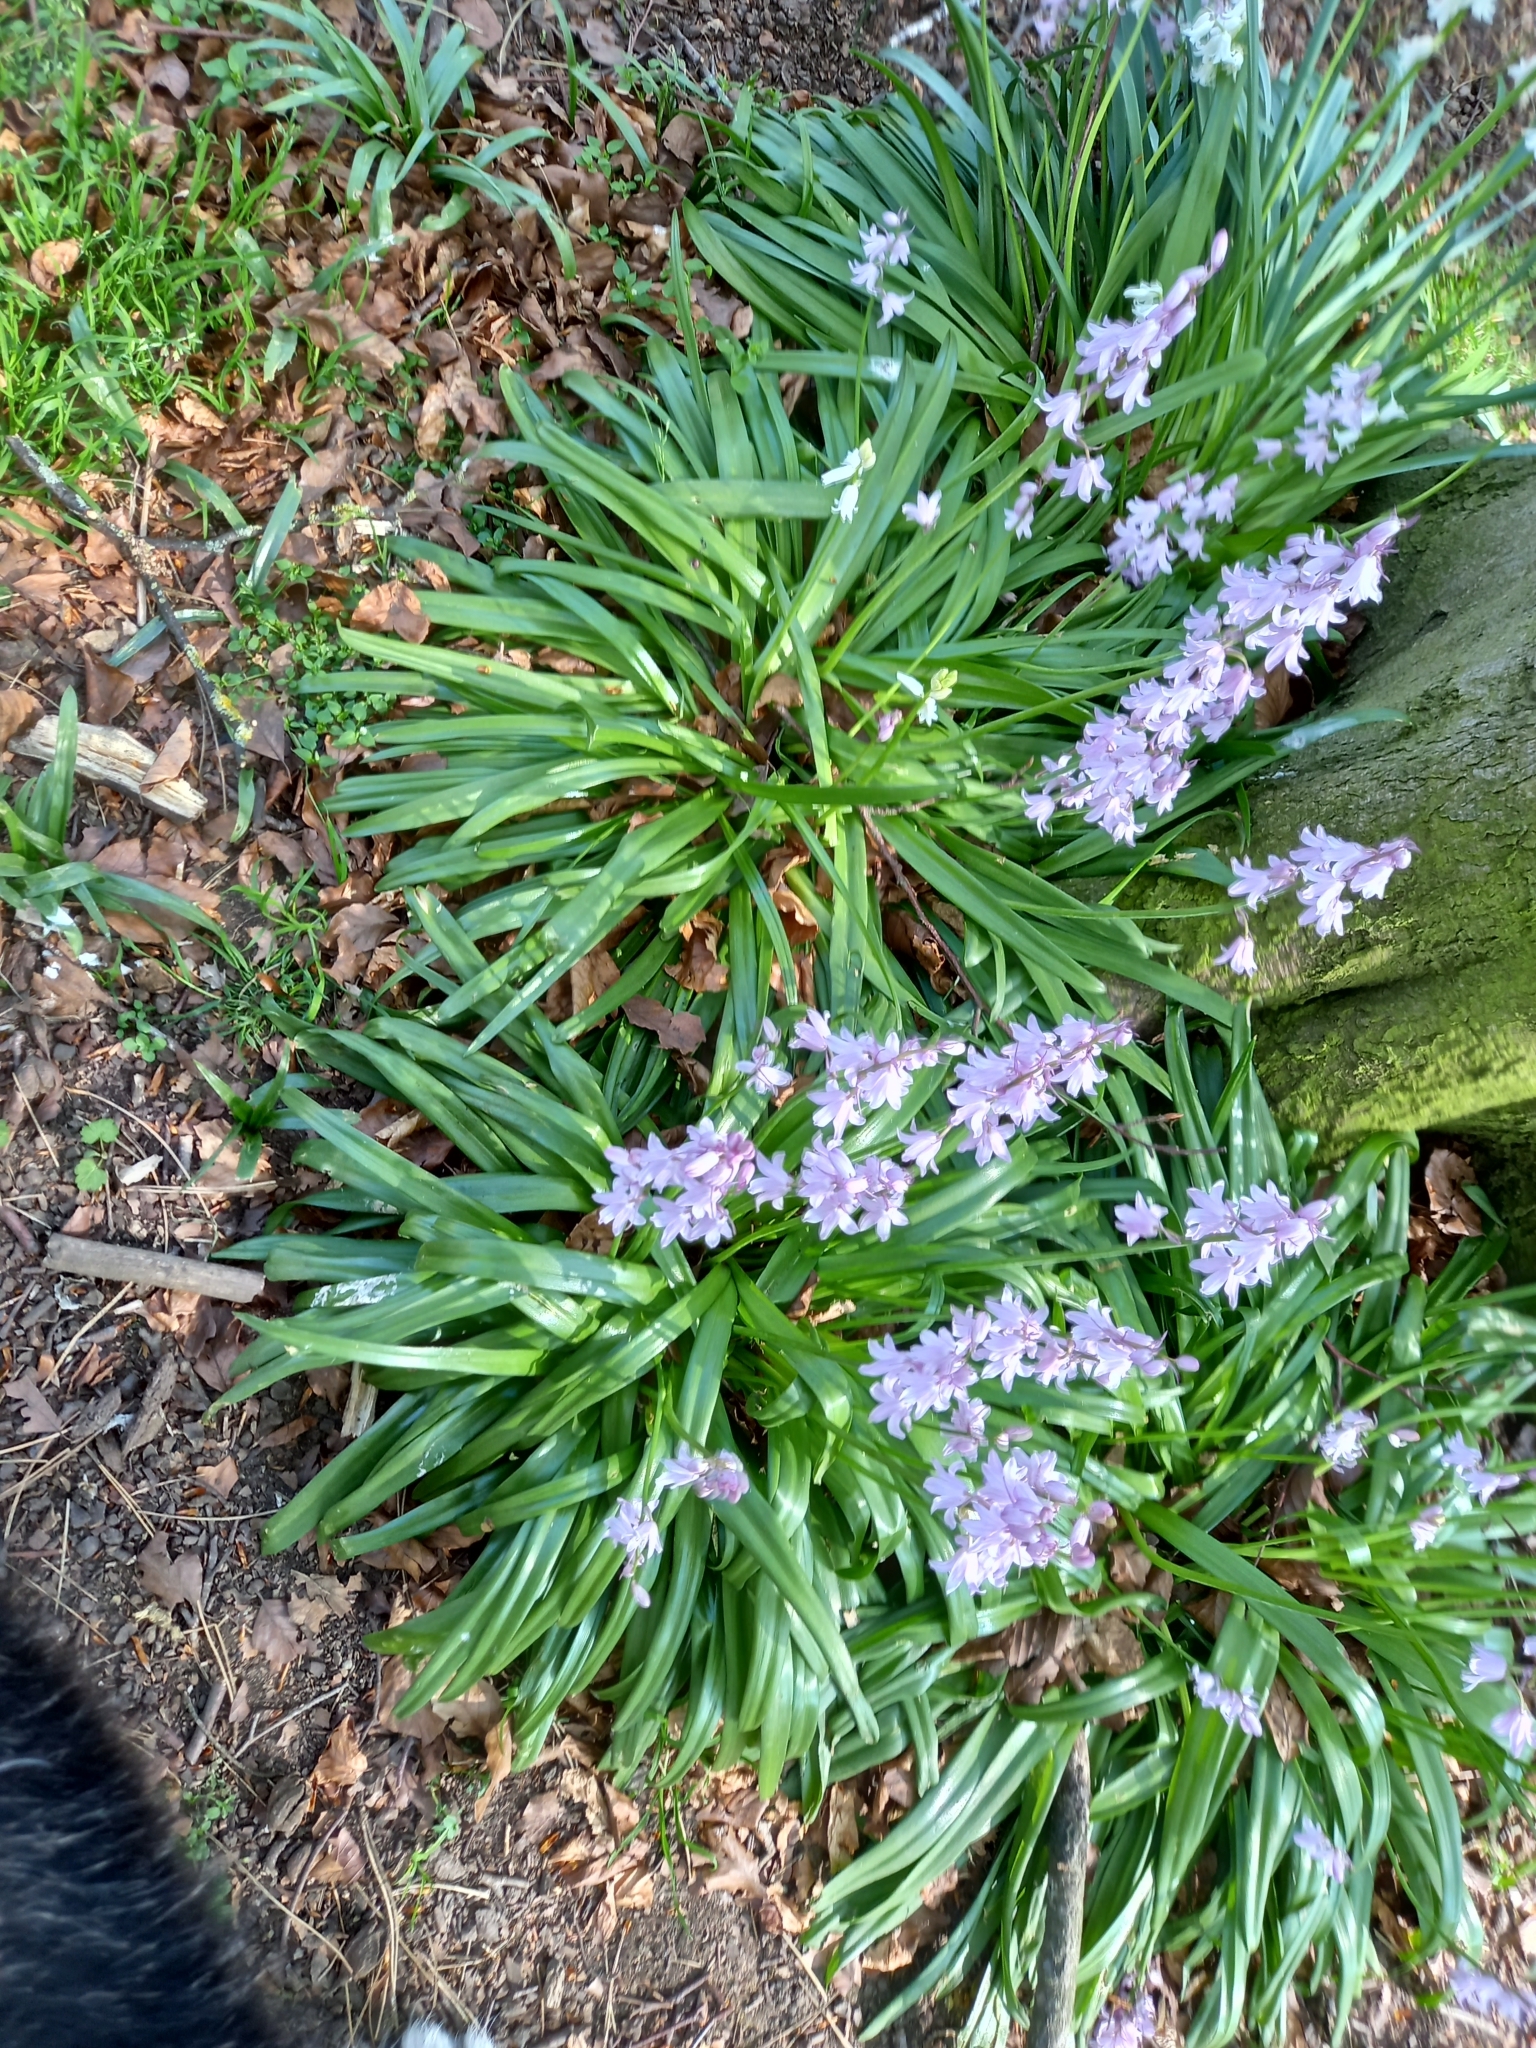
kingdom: Plantae
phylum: Tracheophyta
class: Liliopsida
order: Asparagales
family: Asparagaceae
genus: Hyacinthoides
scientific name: Hyacinthoides massartiana
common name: Hyacinthoides
